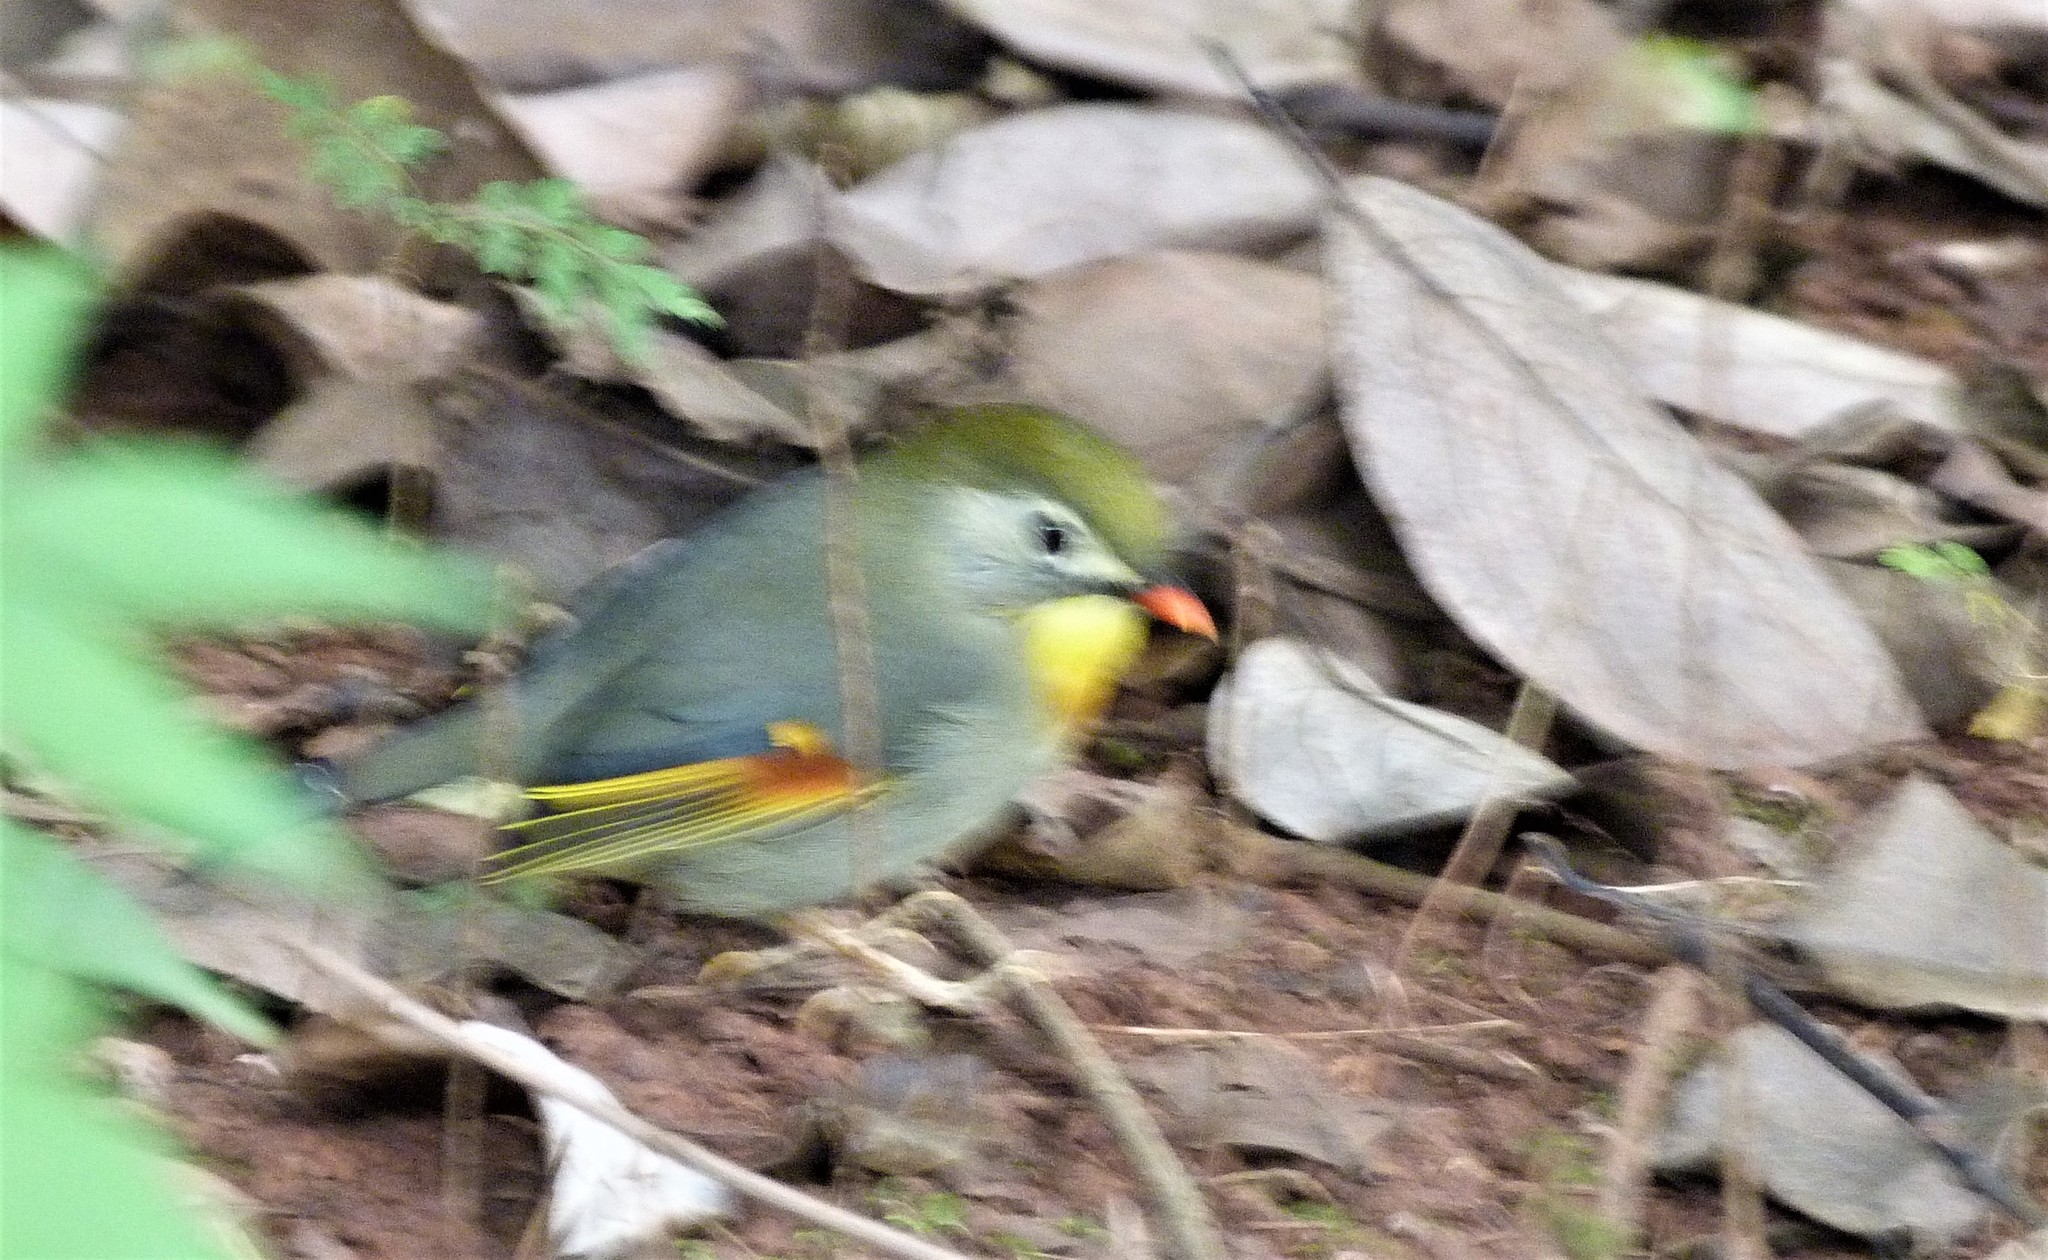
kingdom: Animalia
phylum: Chordata
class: Aves
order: Passeriformes
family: Leiothrichidae
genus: Leiothrix
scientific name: Leiothrix lutea
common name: Red-billed leiothrix
